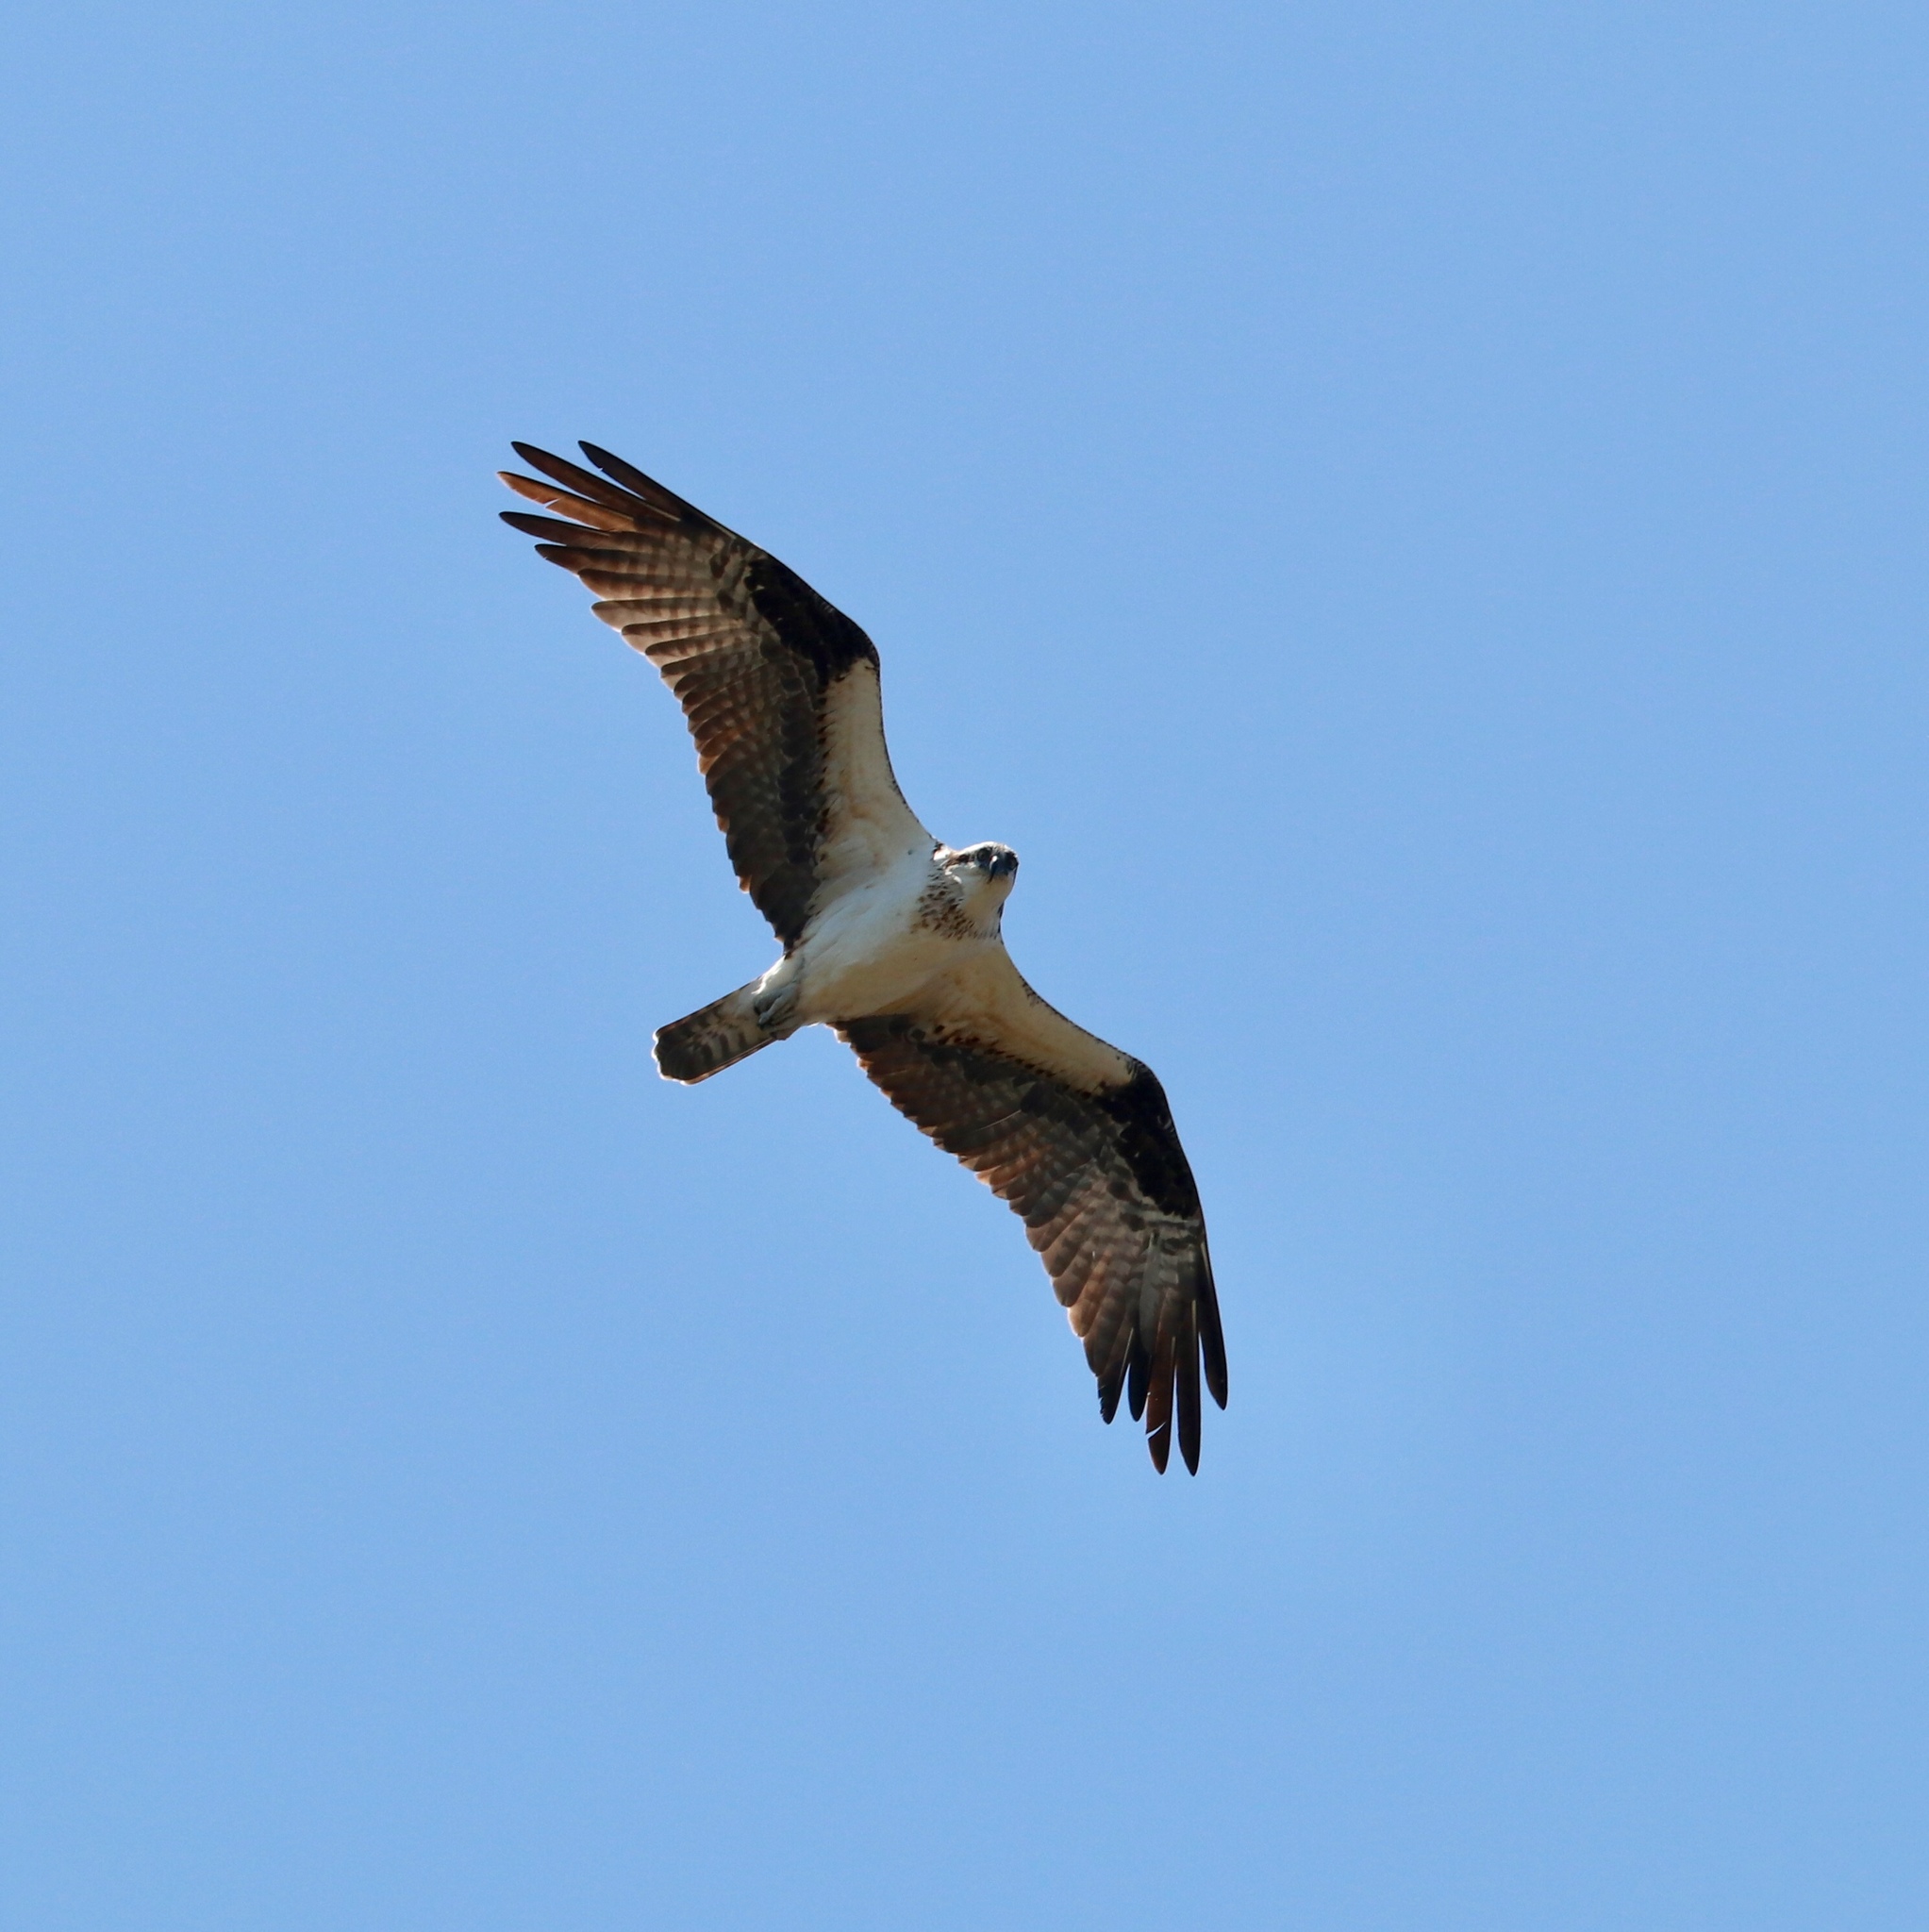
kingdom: Animalia
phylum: Chordata
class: Aves
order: Accipitriformes
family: Pandionidae
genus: Pandion
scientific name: Pandion haliaetus
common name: Osprey
